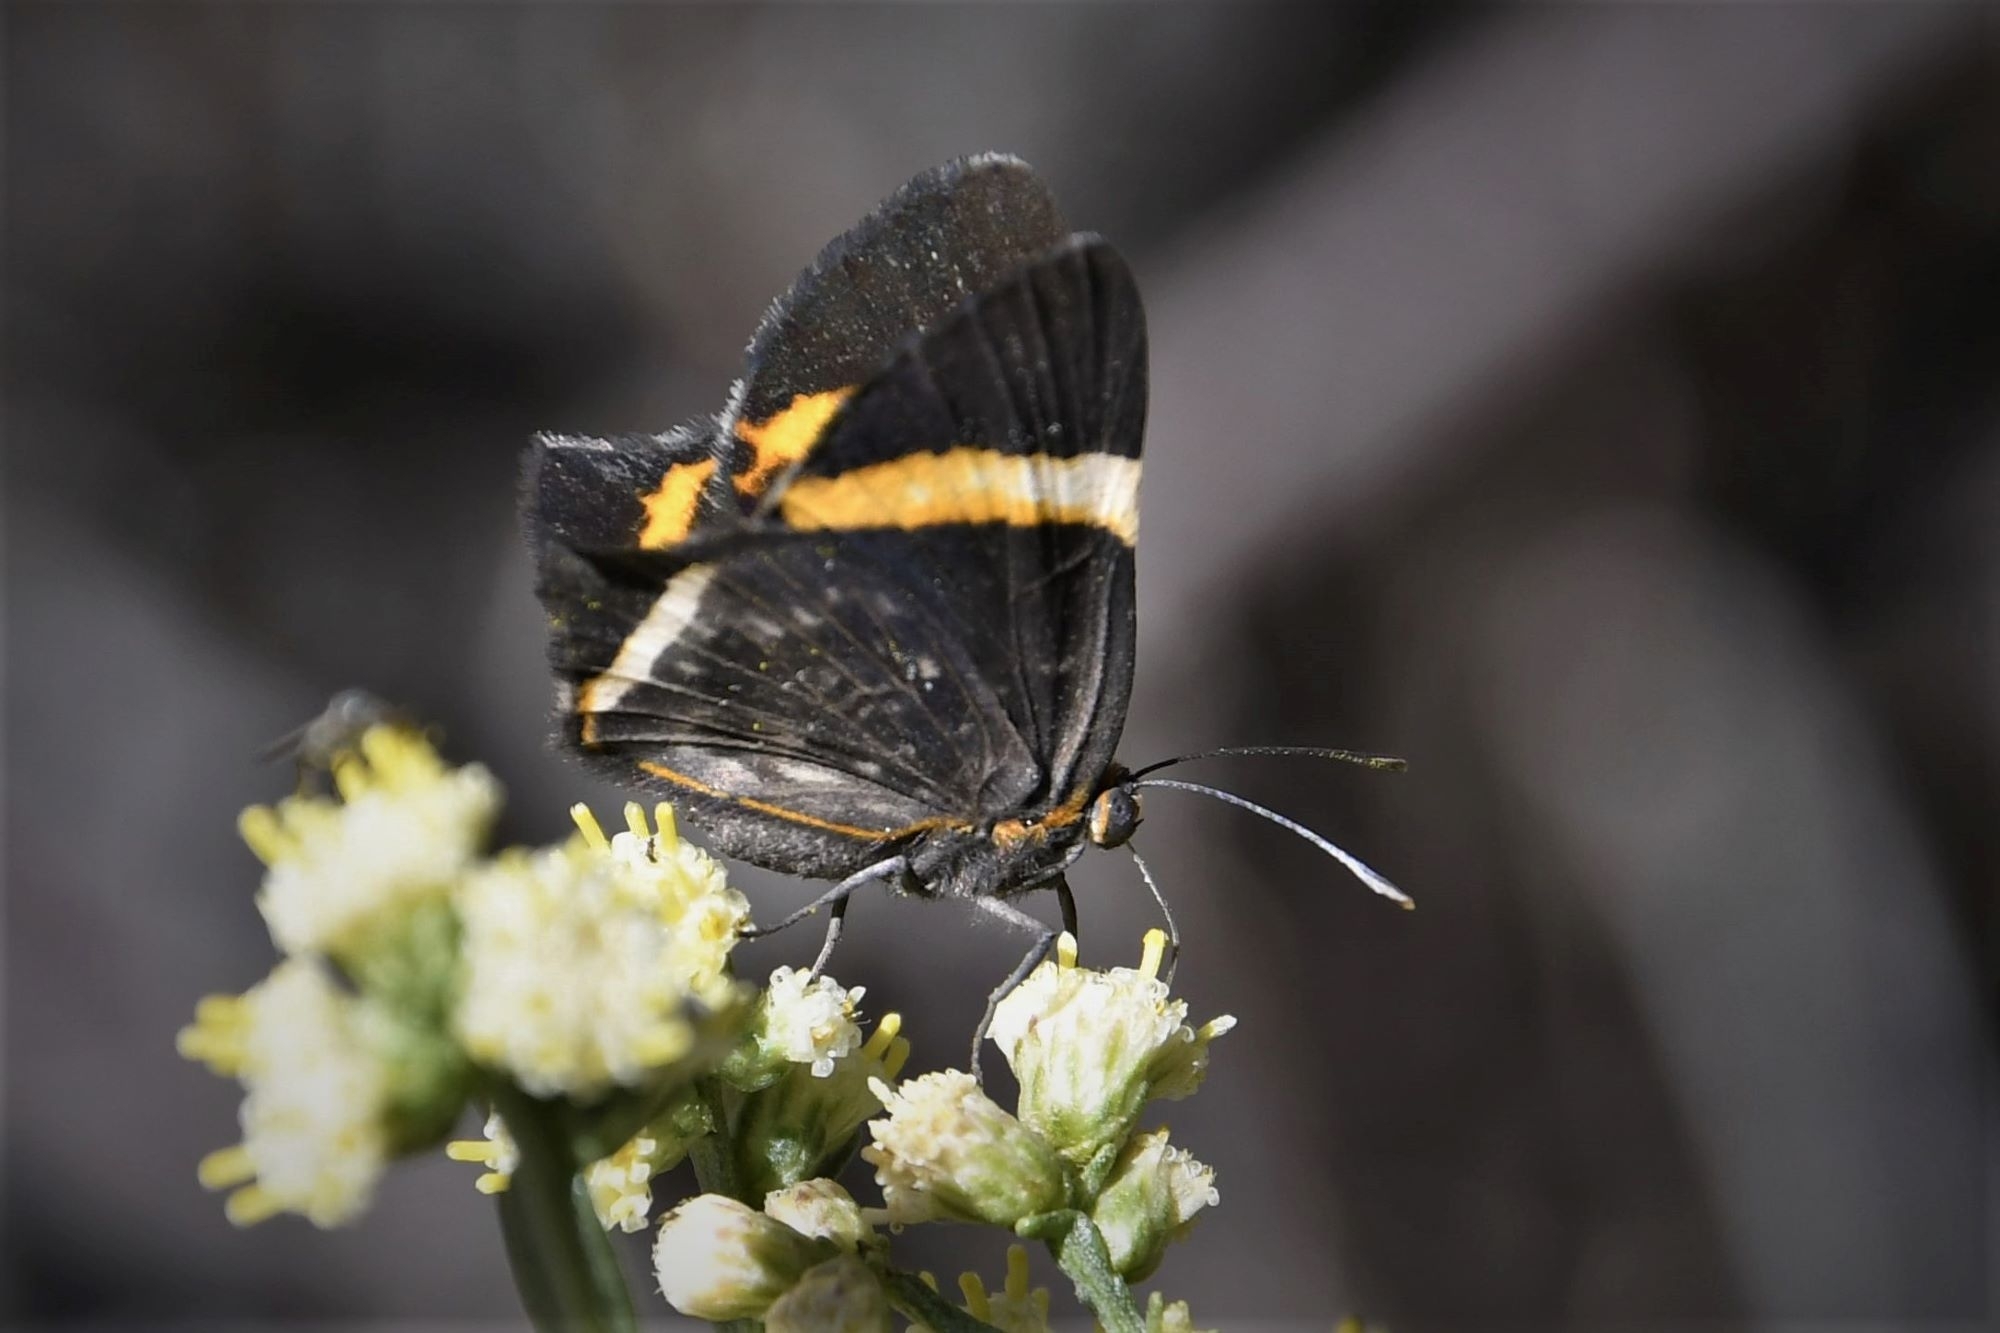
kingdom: Animalia
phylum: Arthropoda
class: Insecta
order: Lepidoptera
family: Riodinidae
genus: Riodina
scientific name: Riodina lysippoides
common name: Little dancer metalmark
